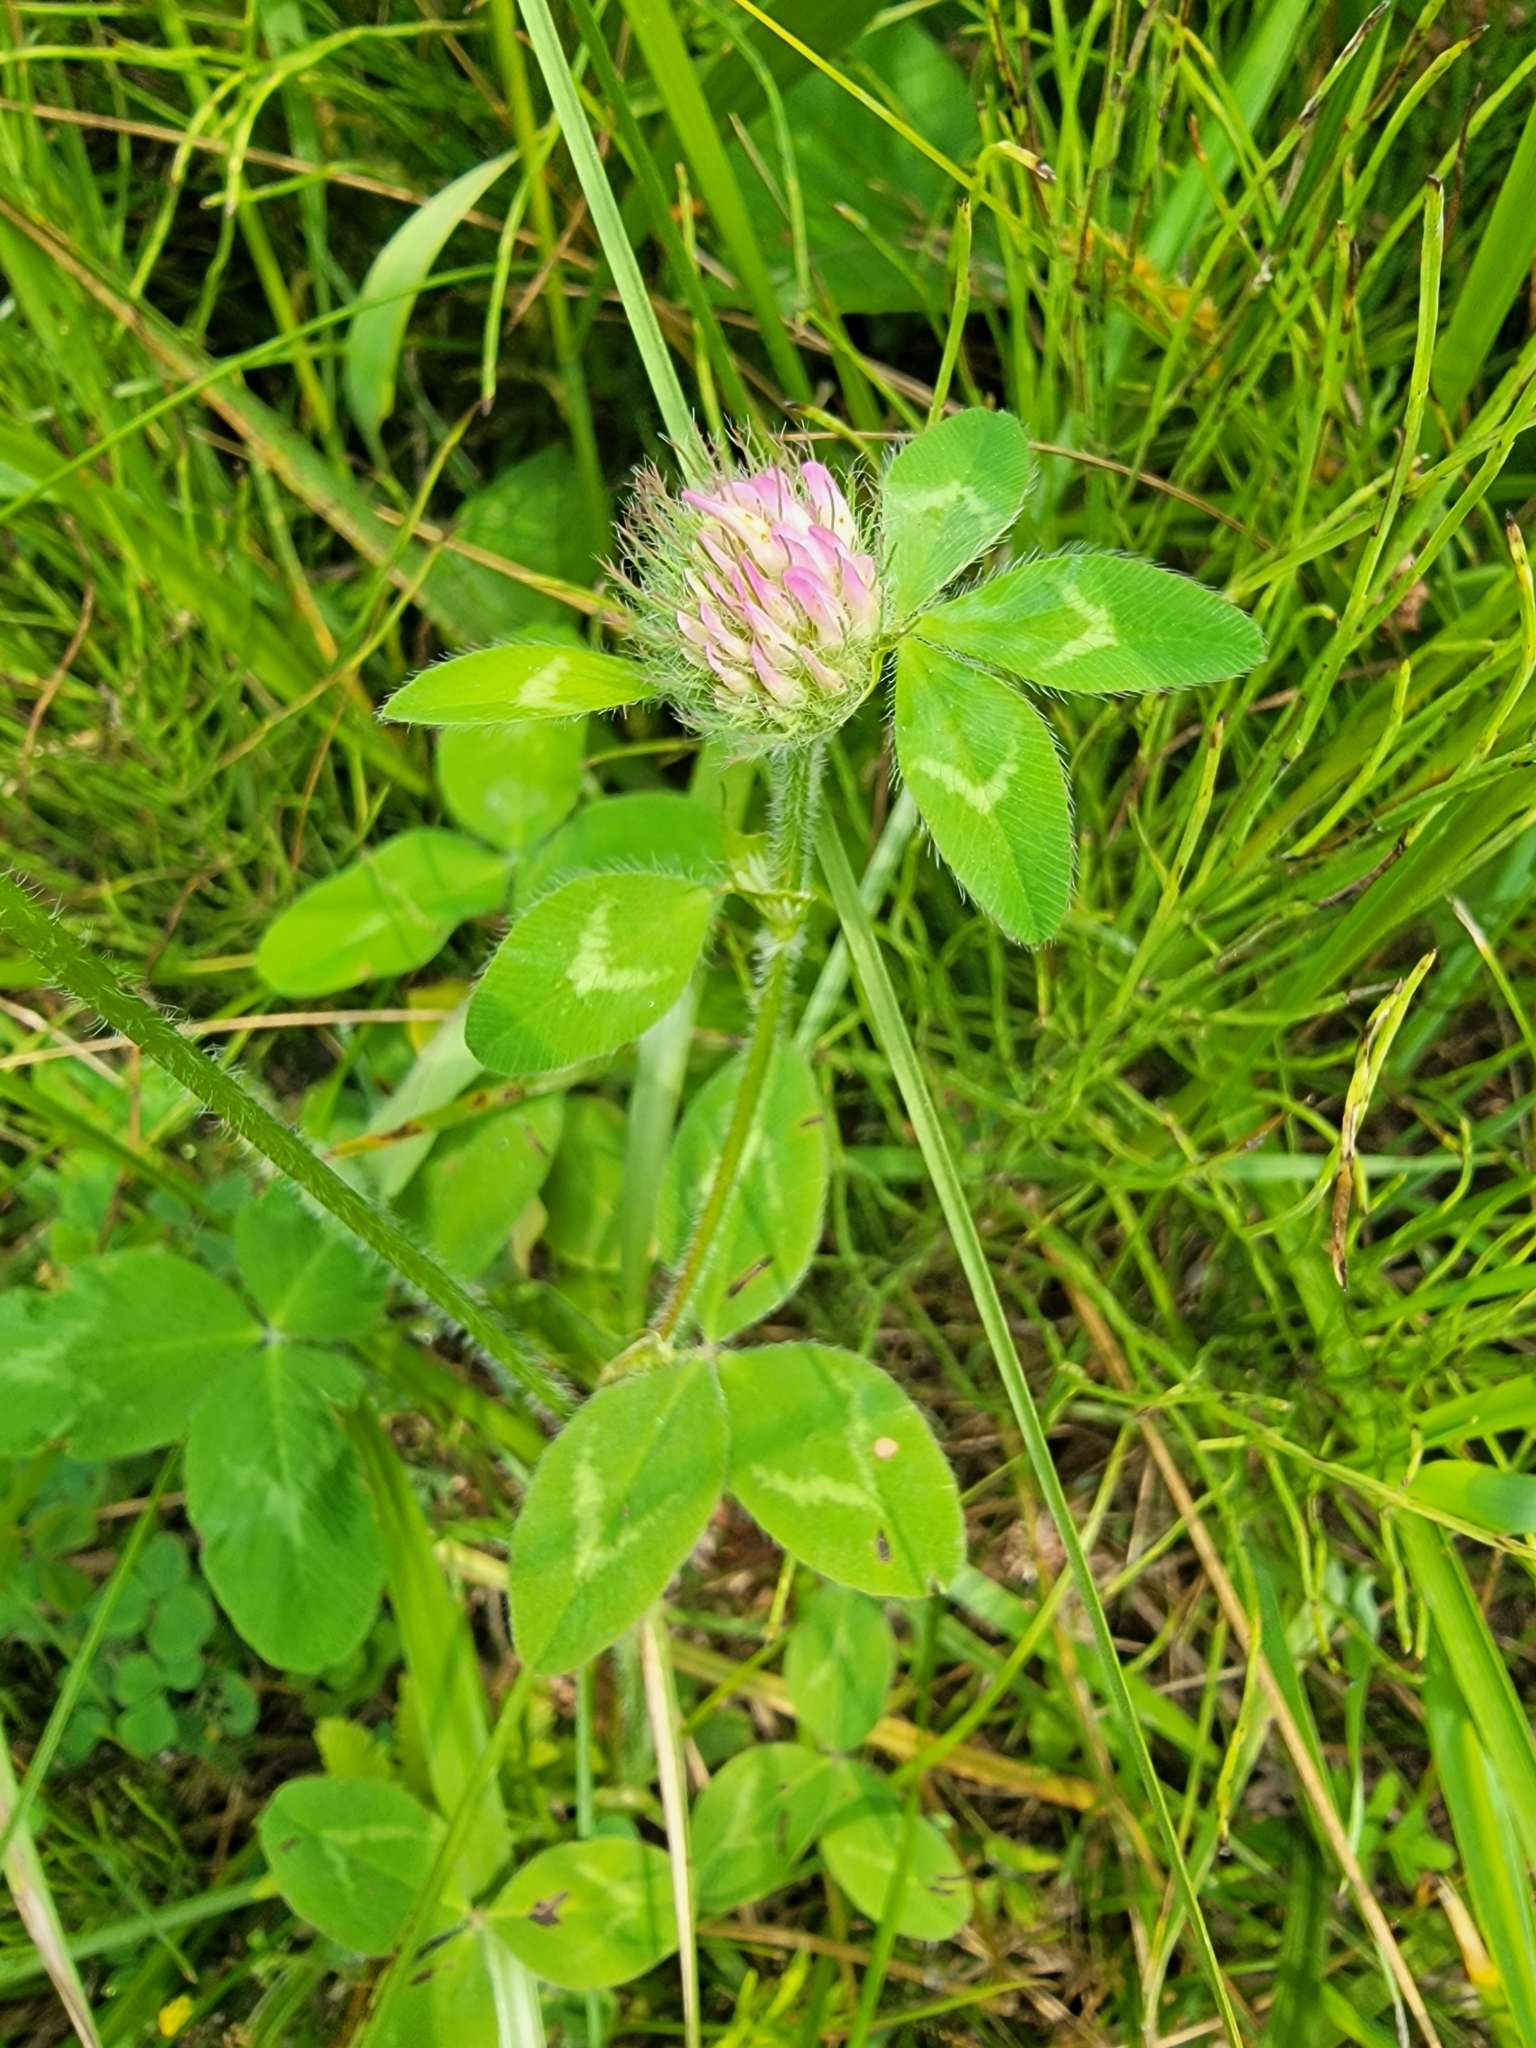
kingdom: Plantae
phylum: Tracheophyta
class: Magnoliopsida
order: Fabales
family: Fabaceae
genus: Trifolium
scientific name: Trifolium pratense
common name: Red clover
